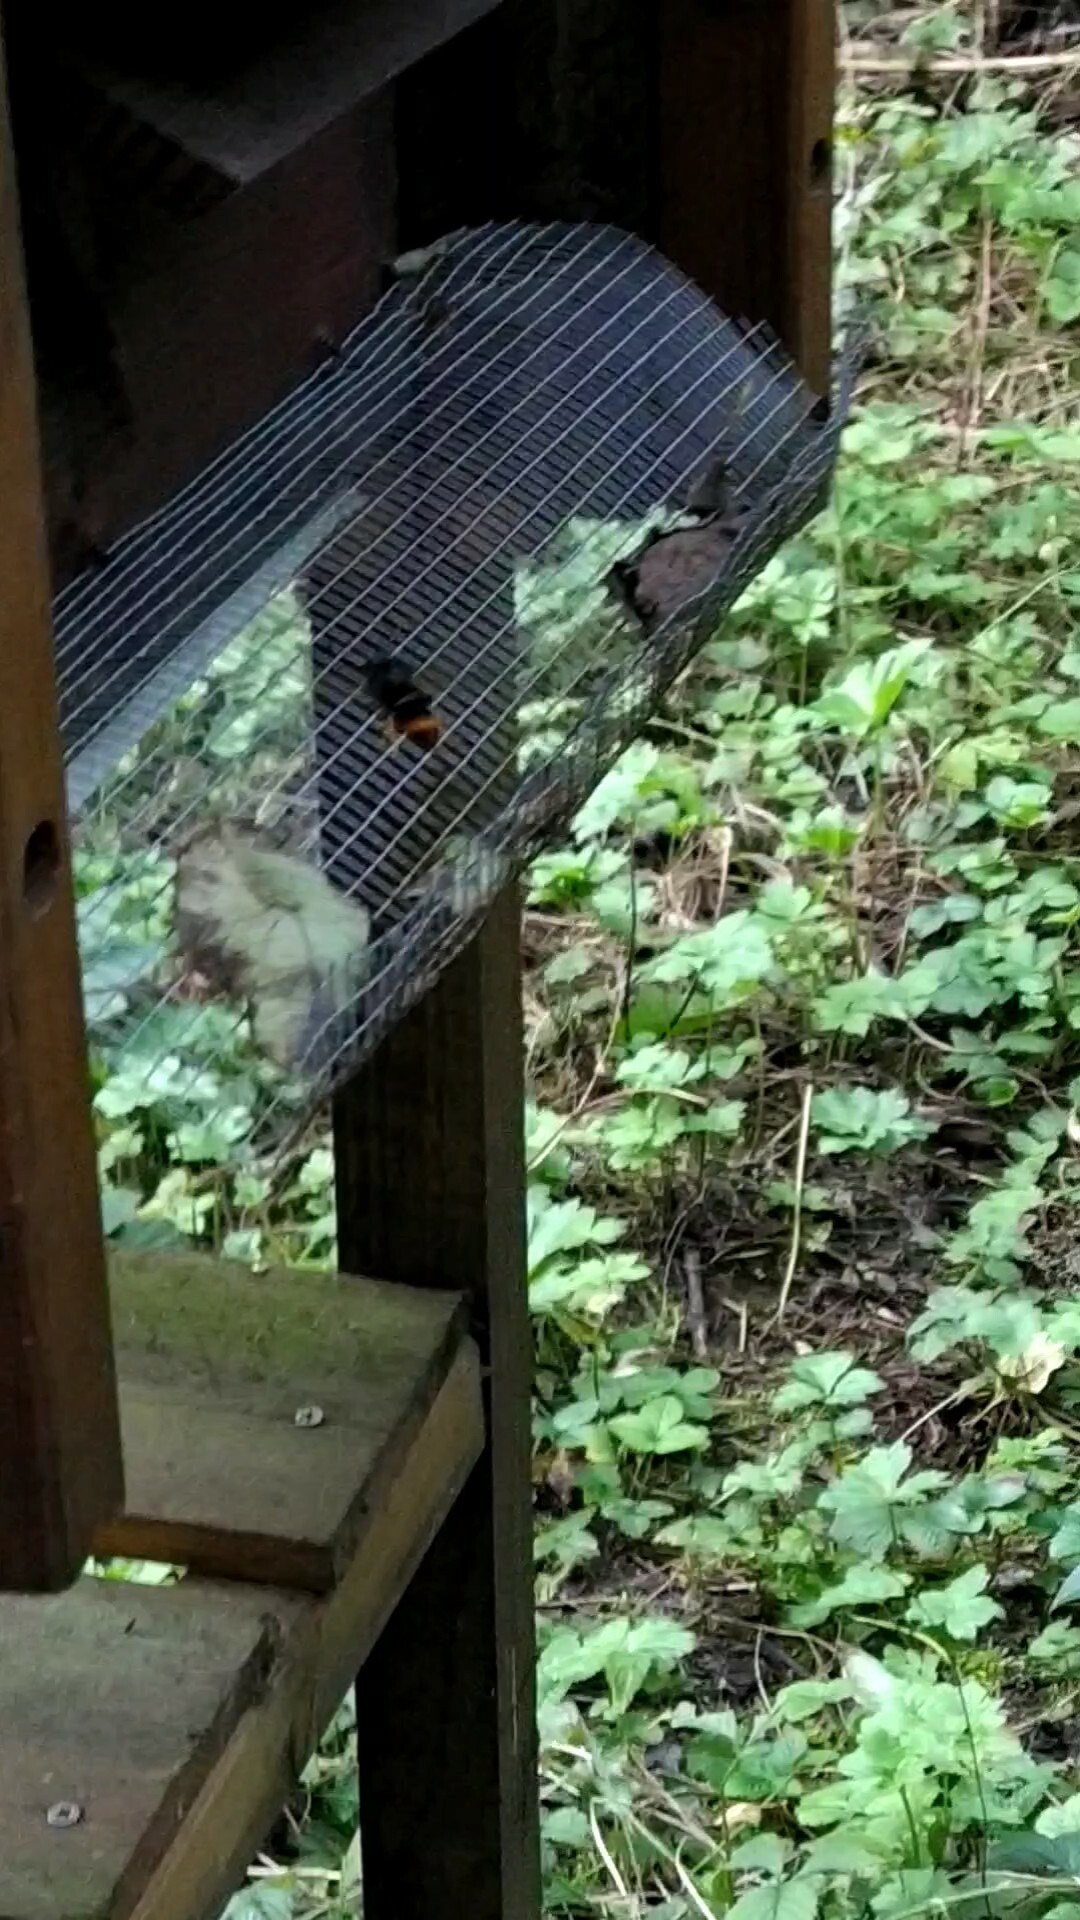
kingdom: Animalia
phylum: Arthropoda
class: Insecta
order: Hymenoptera
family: Vespidae
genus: Vespa
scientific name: Vespa velutina
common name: Asian hornet
